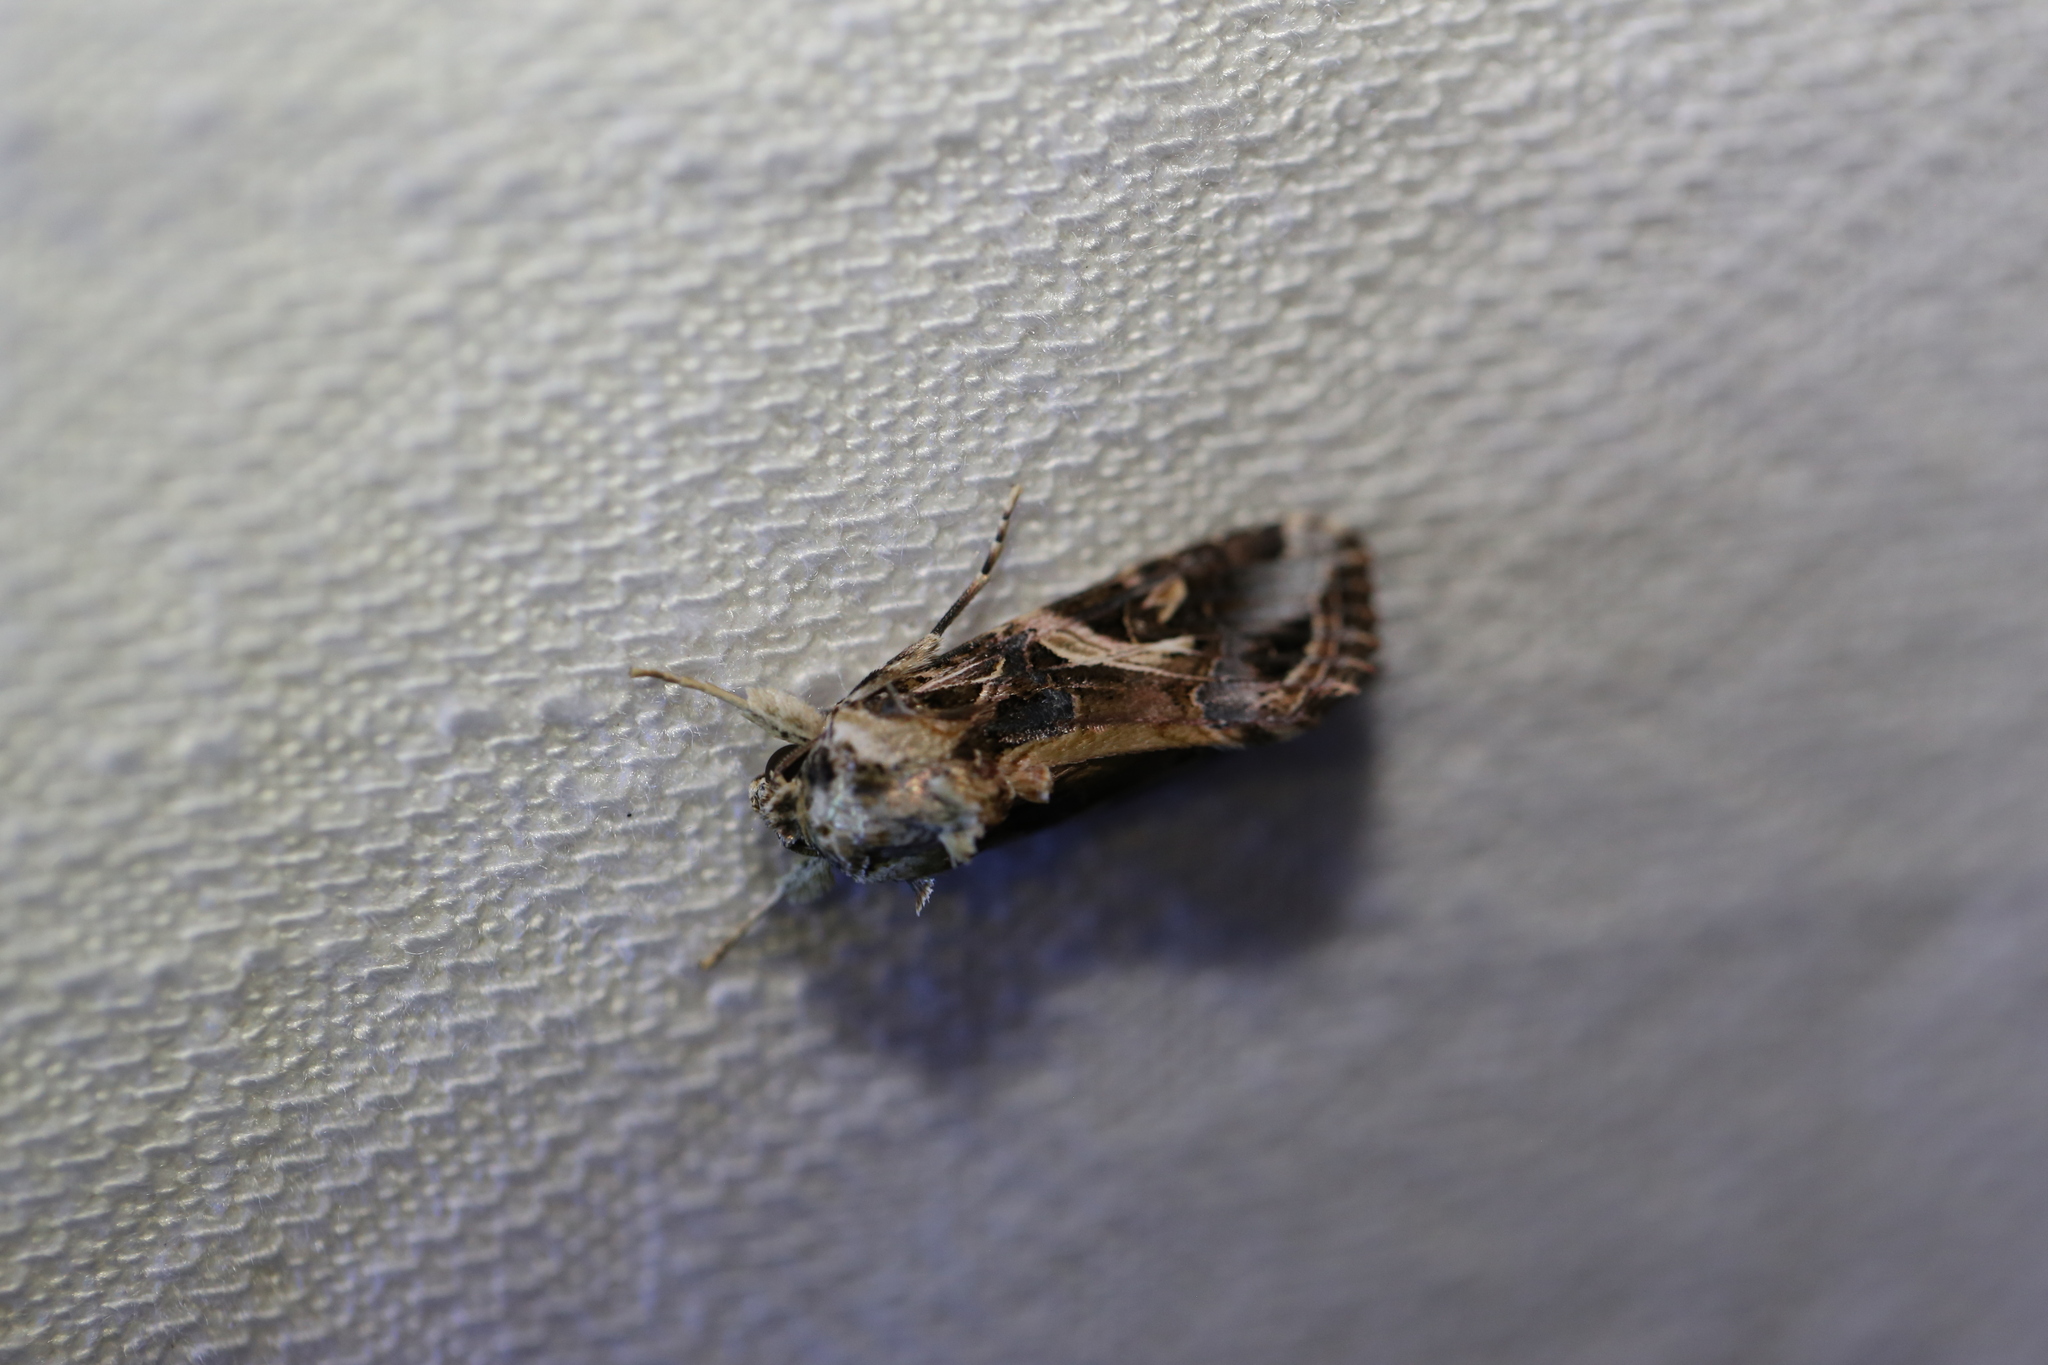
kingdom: Animalia
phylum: Arthropoda
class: Insecta
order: Lepidoptera
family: Noctuidae
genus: Spodoptera
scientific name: Spodoptera litura
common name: Asian cotton leafworm
